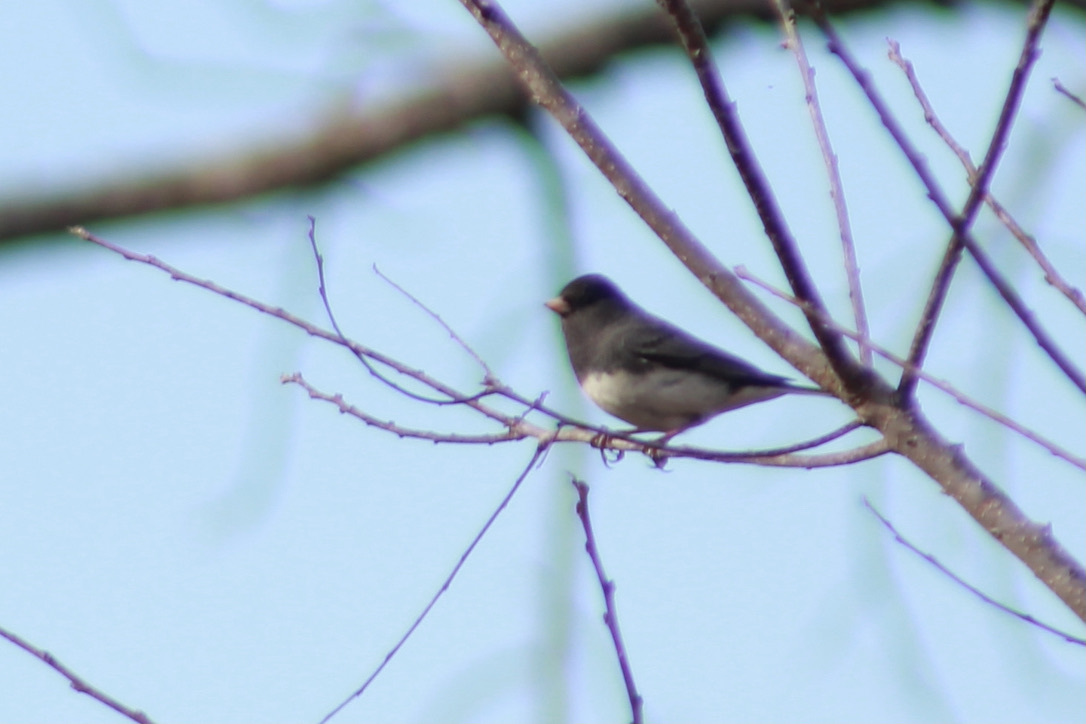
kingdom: Animalia
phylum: Chordata
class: Aves
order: Passeriformes
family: Passerellidae
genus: Junco
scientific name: Junco hyemalis
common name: Dark-eyed junco
